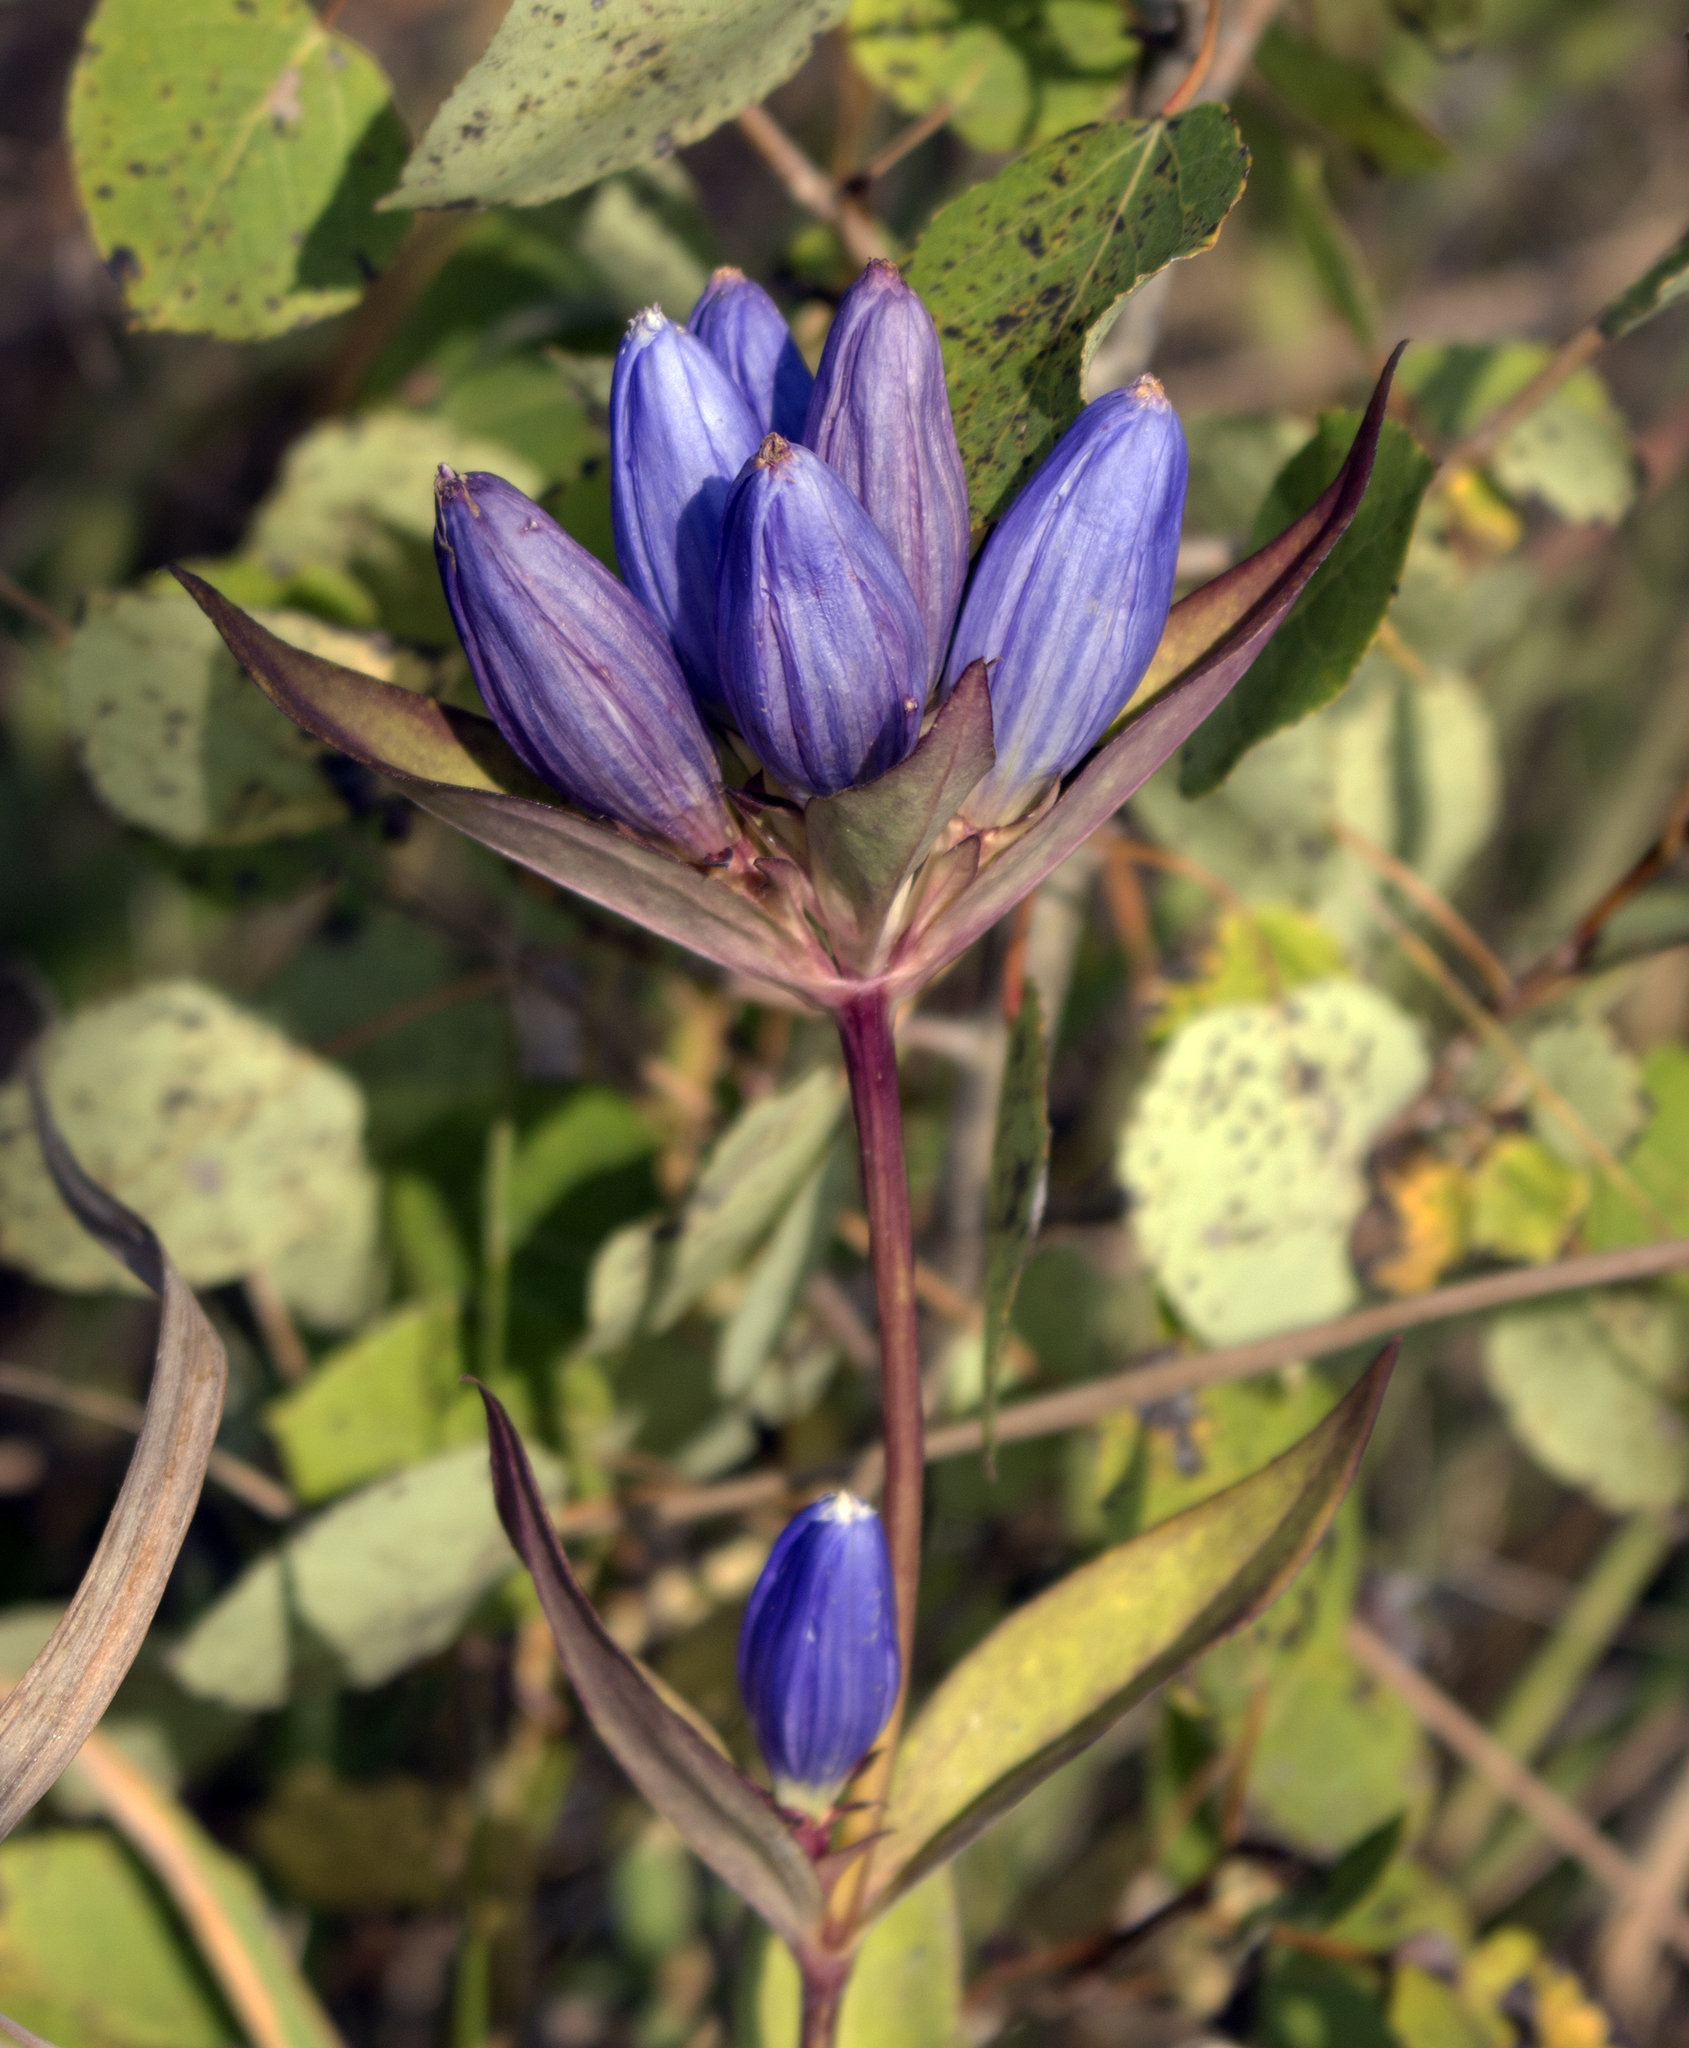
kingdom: Plantae
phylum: Tracheophyta
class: Magnoliopsida
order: Gentianales
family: Gentianaceae
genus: Gentiana
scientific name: Gentiana andrewsii
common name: Bottle gentian
